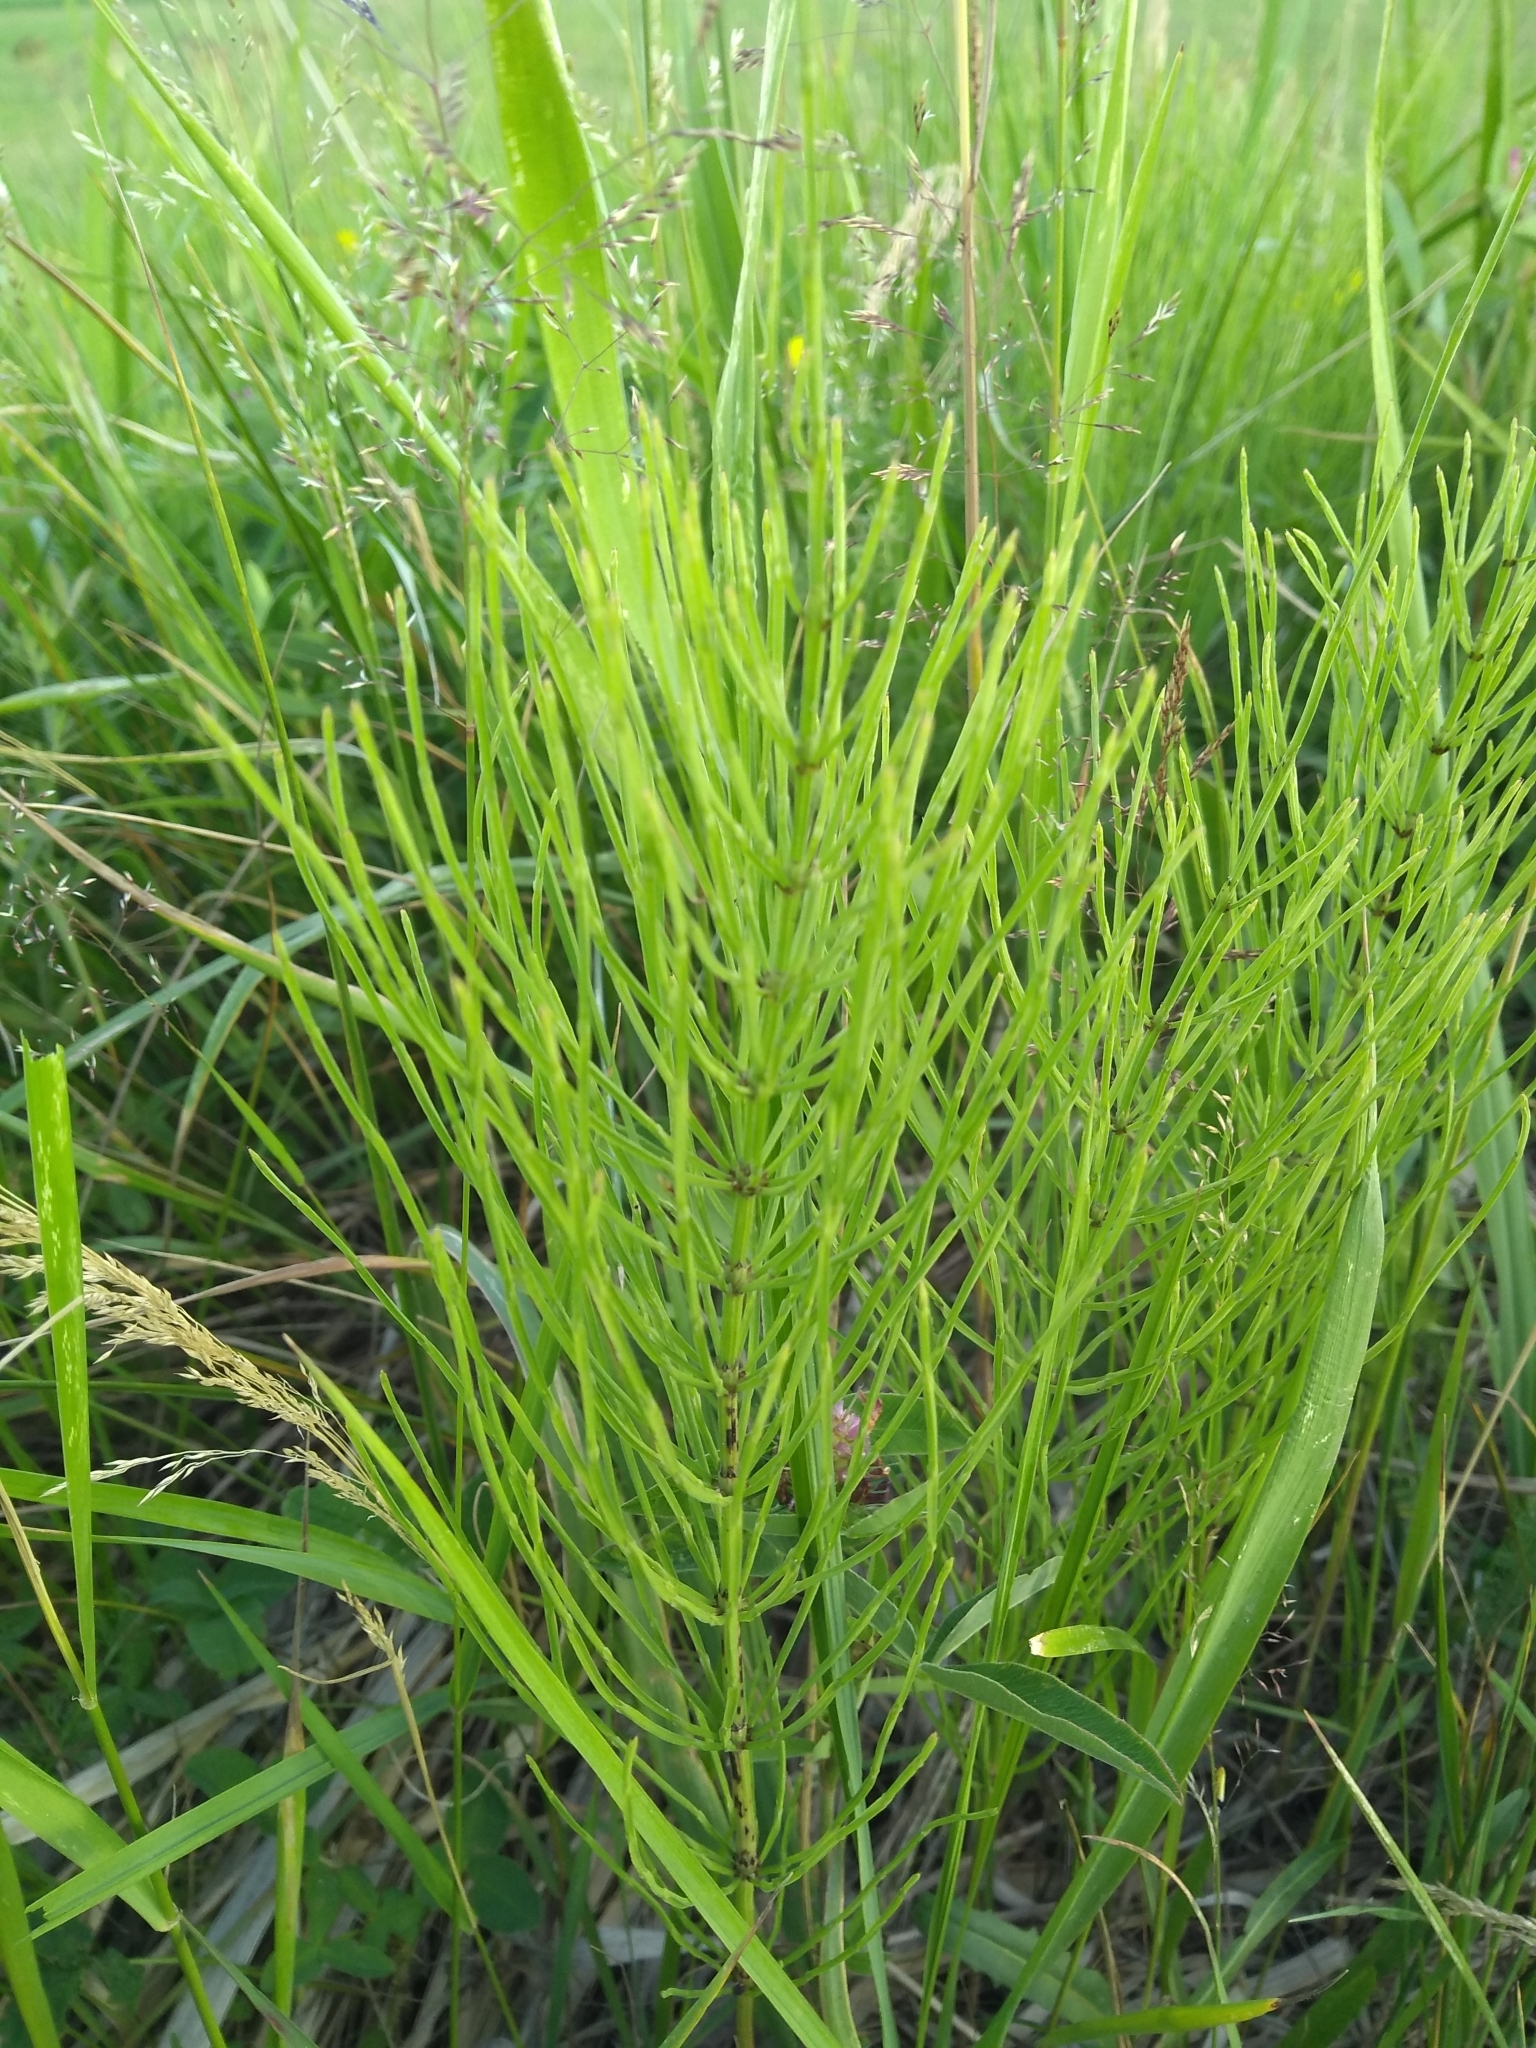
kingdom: Plantae
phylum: Tracheophyta
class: Polypodiopsida
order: Equisetales
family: Equisetaceae
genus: Equisetum
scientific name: Equisetum arvense
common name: Field horsetail
